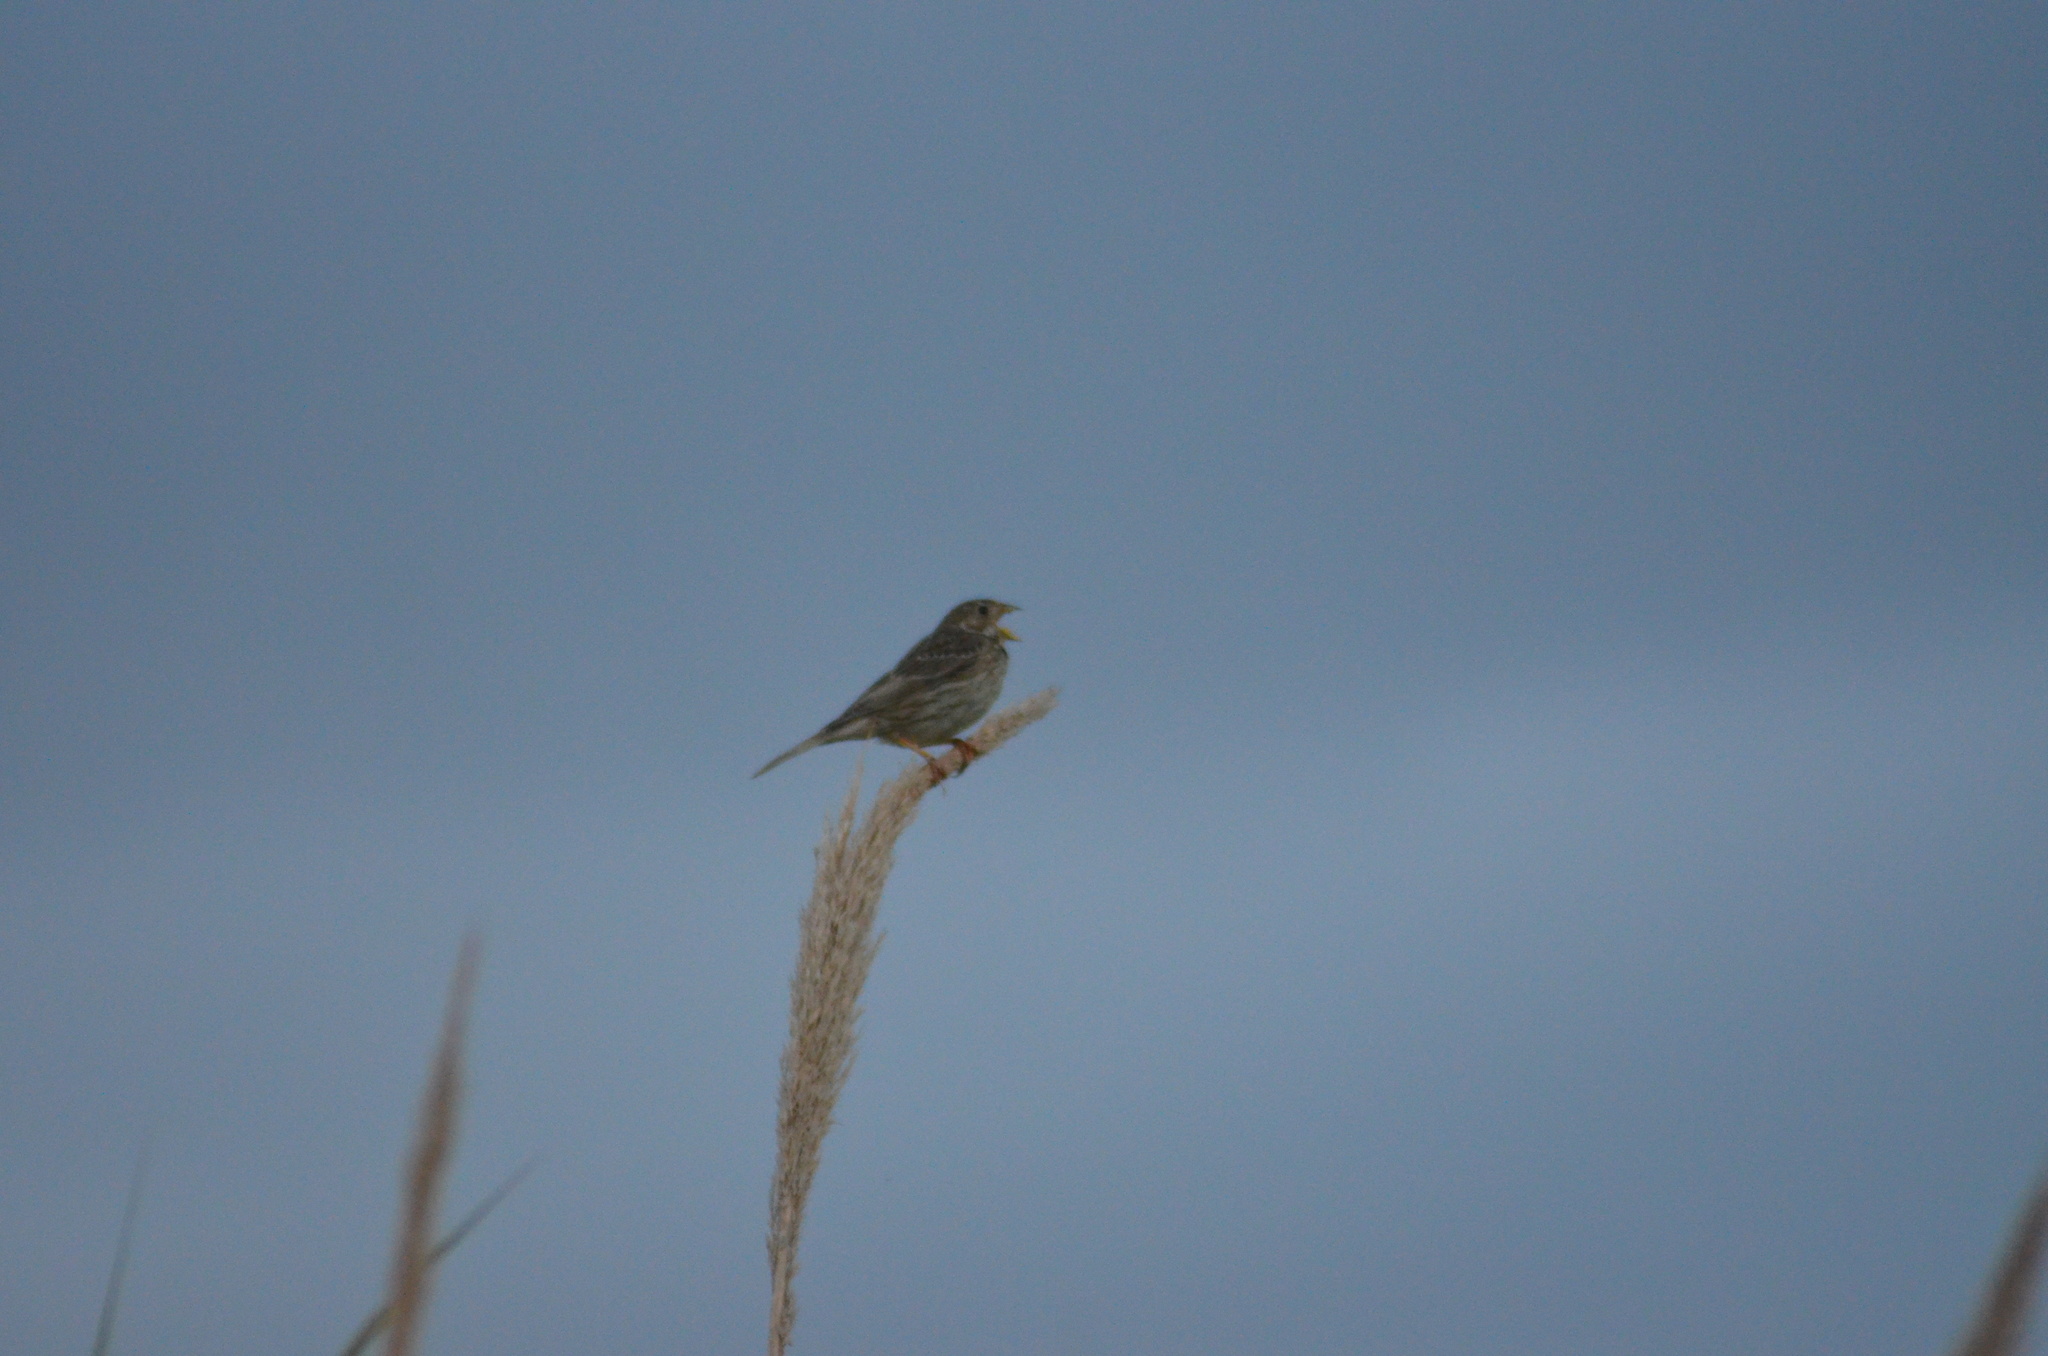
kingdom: Animalia
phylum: Chordata
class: Aves
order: Passeriformes
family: Emberizidae
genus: Emberiza
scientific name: Emberiza calandra
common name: Corn bunting
